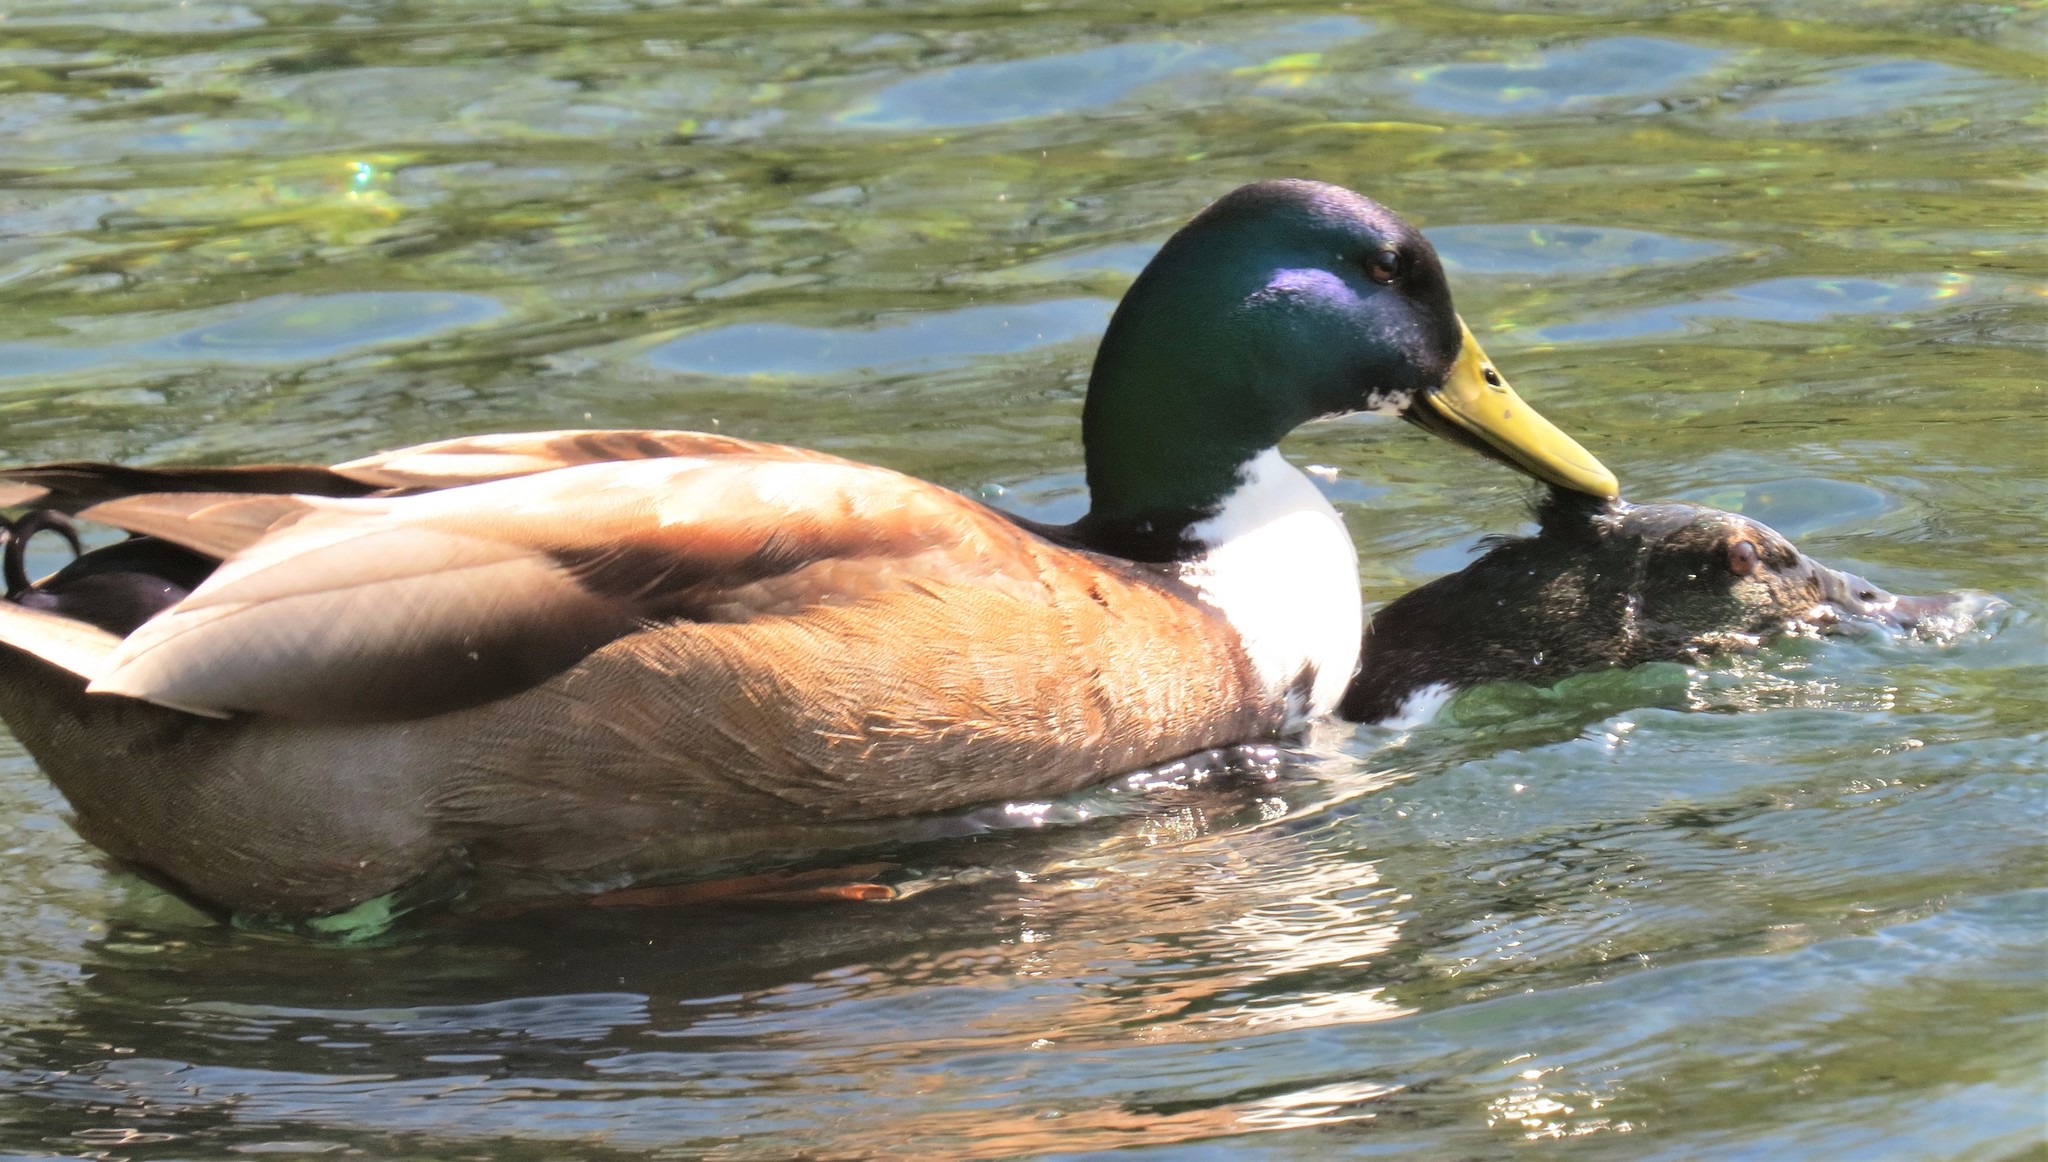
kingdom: Animalia
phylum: Chordata
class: Aves
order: Anseriformes
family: Anatidae
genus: Anas
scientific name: Anas platyrhynchos
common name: Mallard
